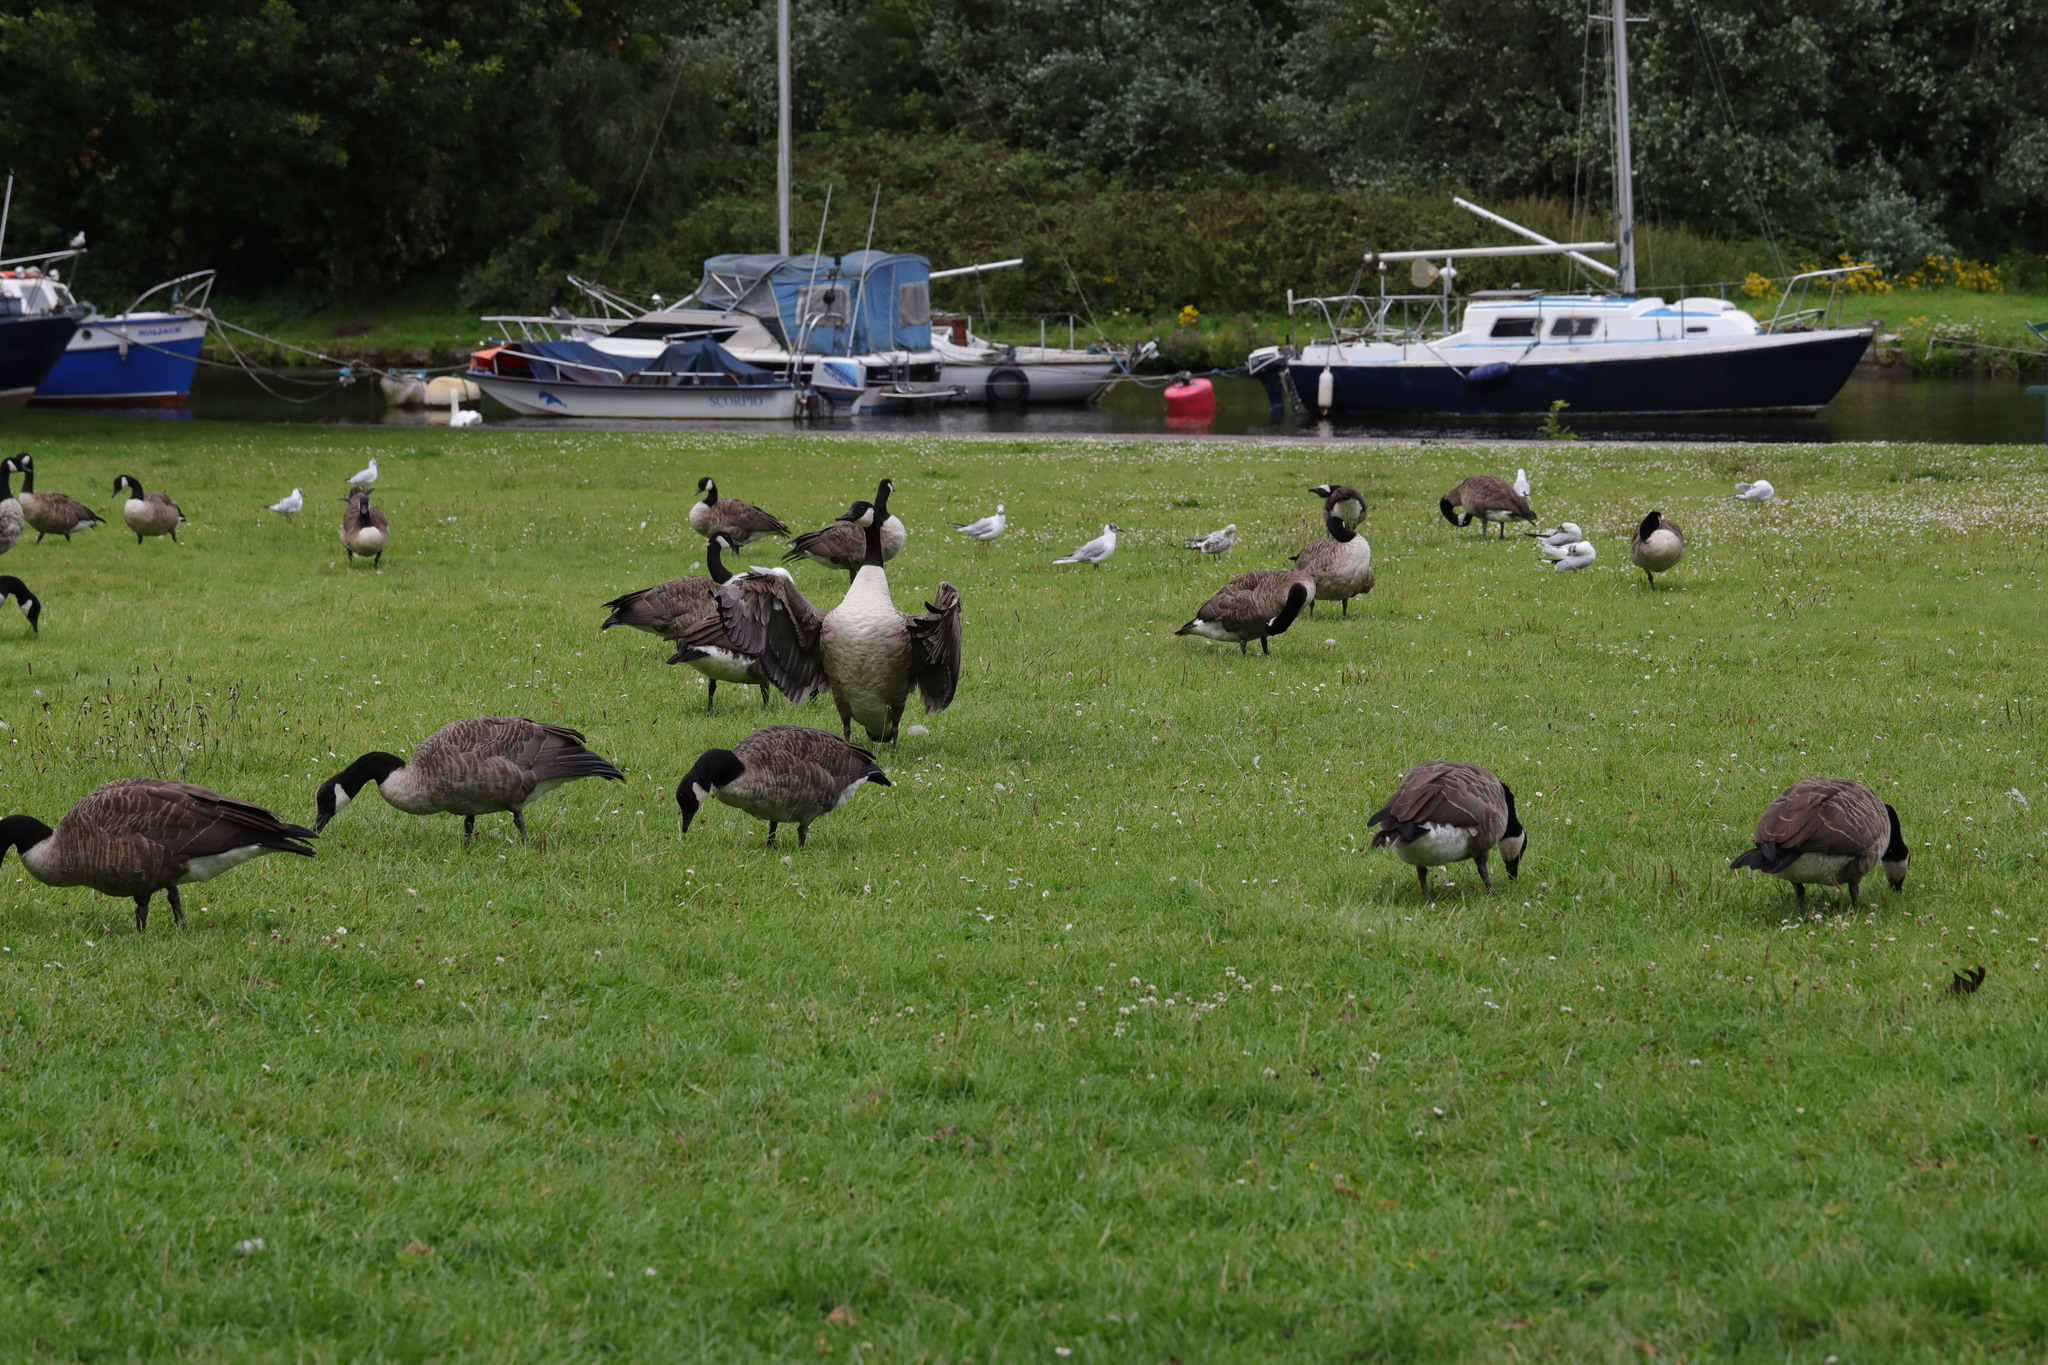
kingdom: Animalia
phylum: Chordata
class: Aves
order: Anseriformes
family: Anatidae
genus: Branta
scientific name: Branta canadensis
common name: Canada goose
